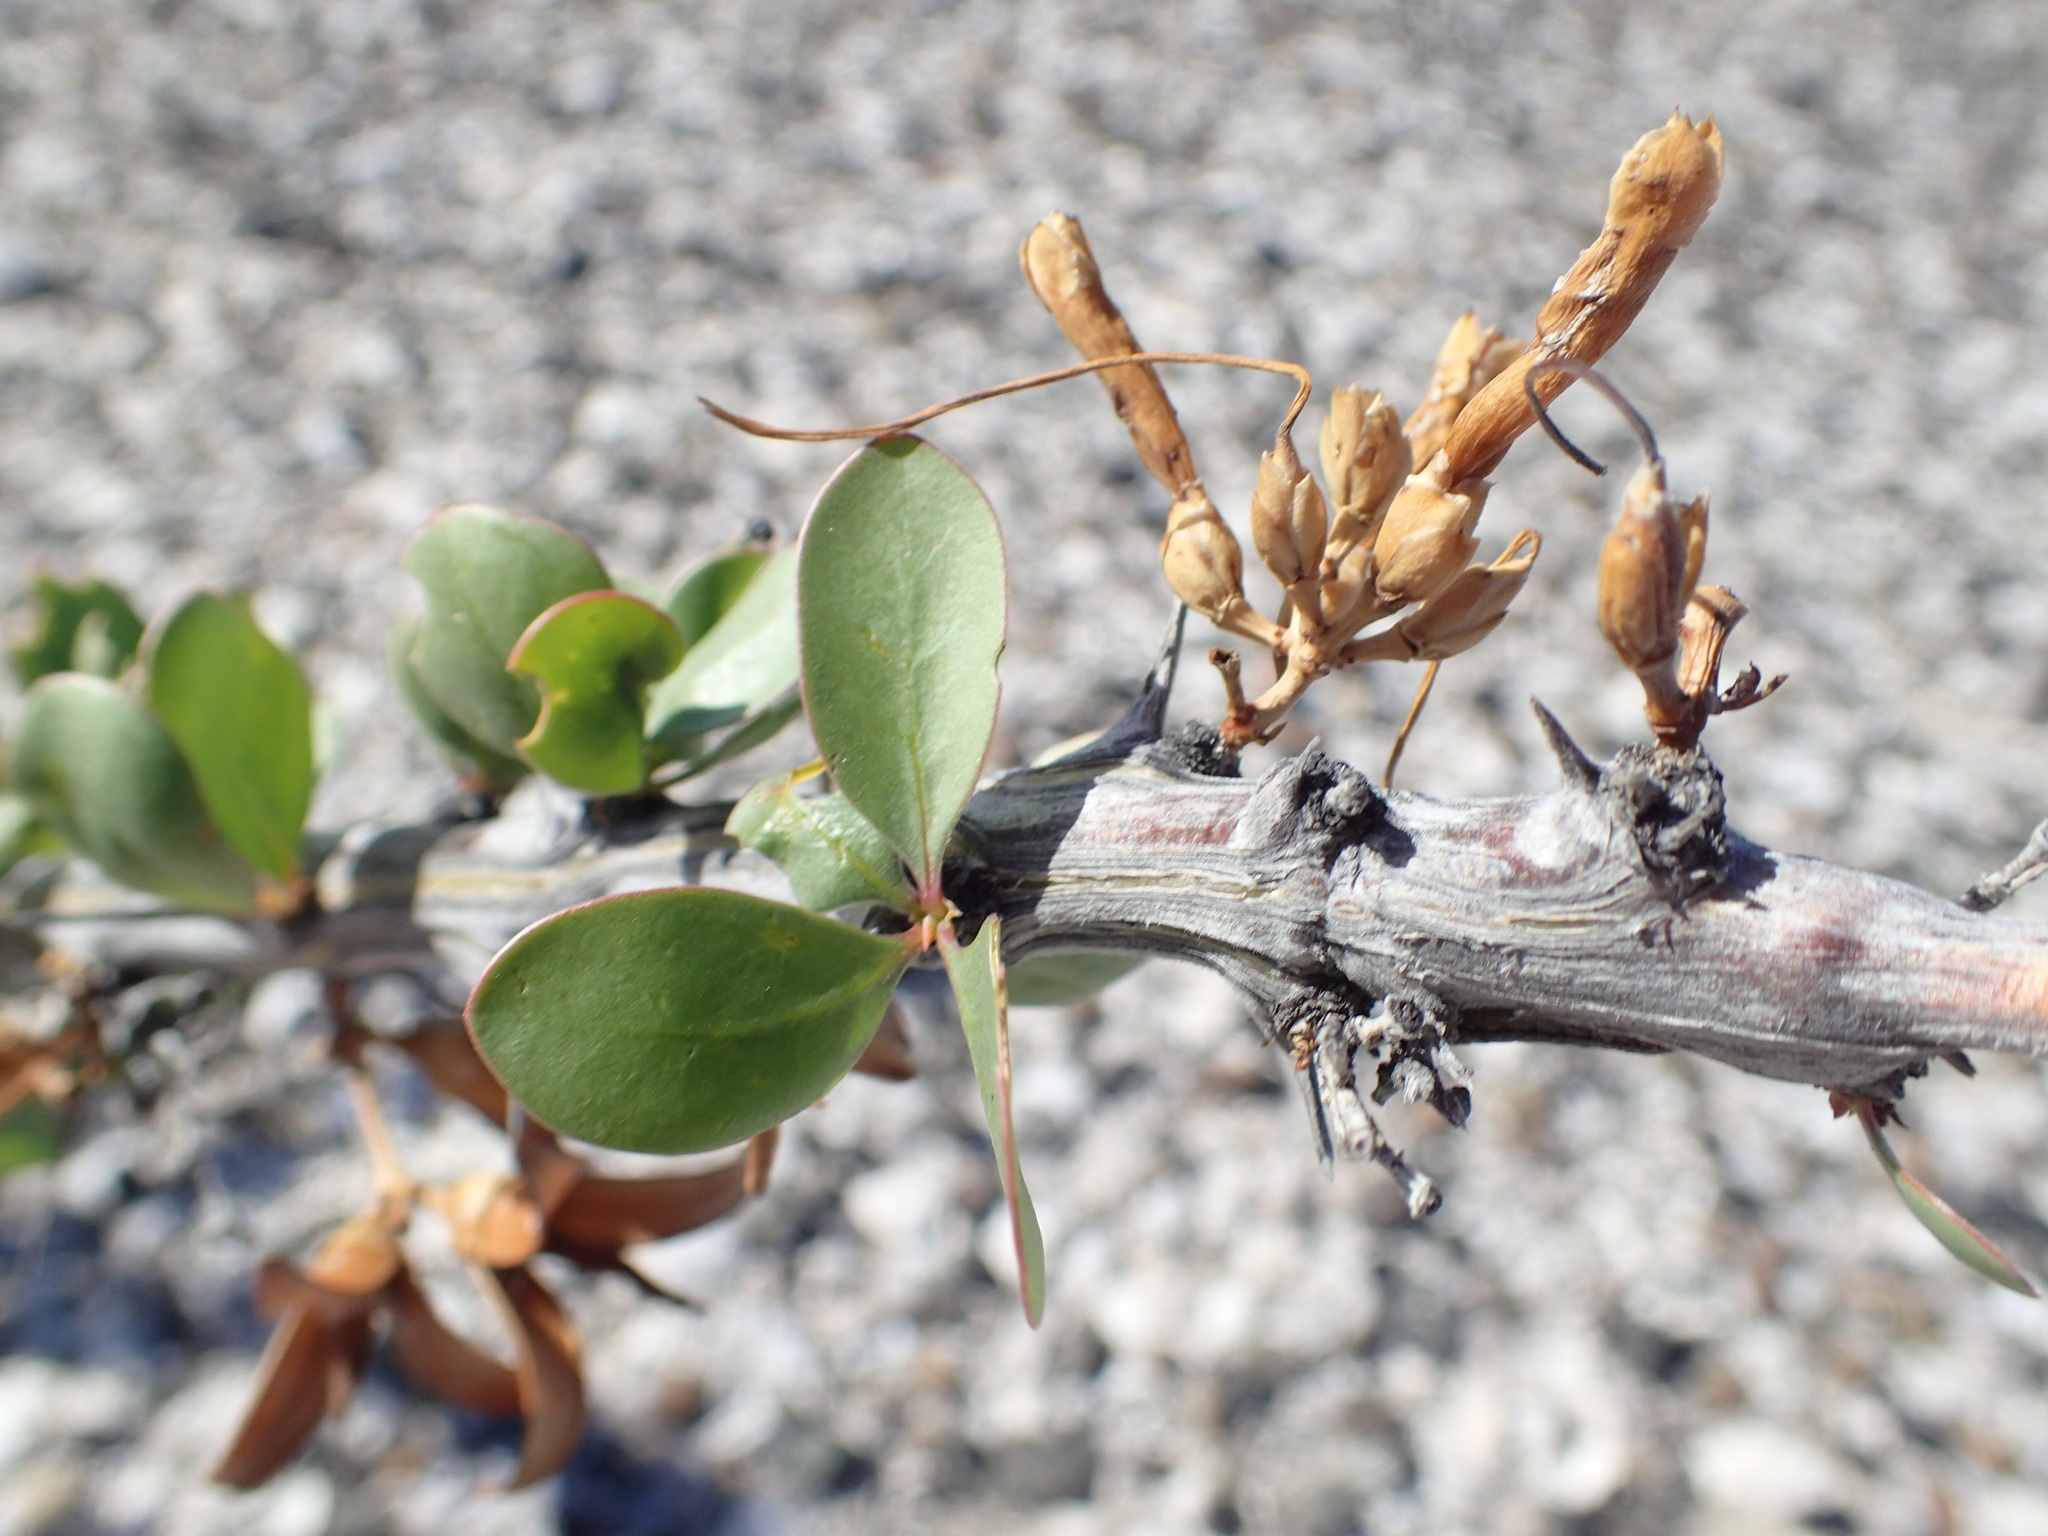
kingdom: Plantae
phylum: Tracheophyta
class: Magnoliopsida
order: Ericales
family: Fouquieriaceae
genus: Fouquieria
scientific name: Fouquieria diguetii
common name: Adam's tree
